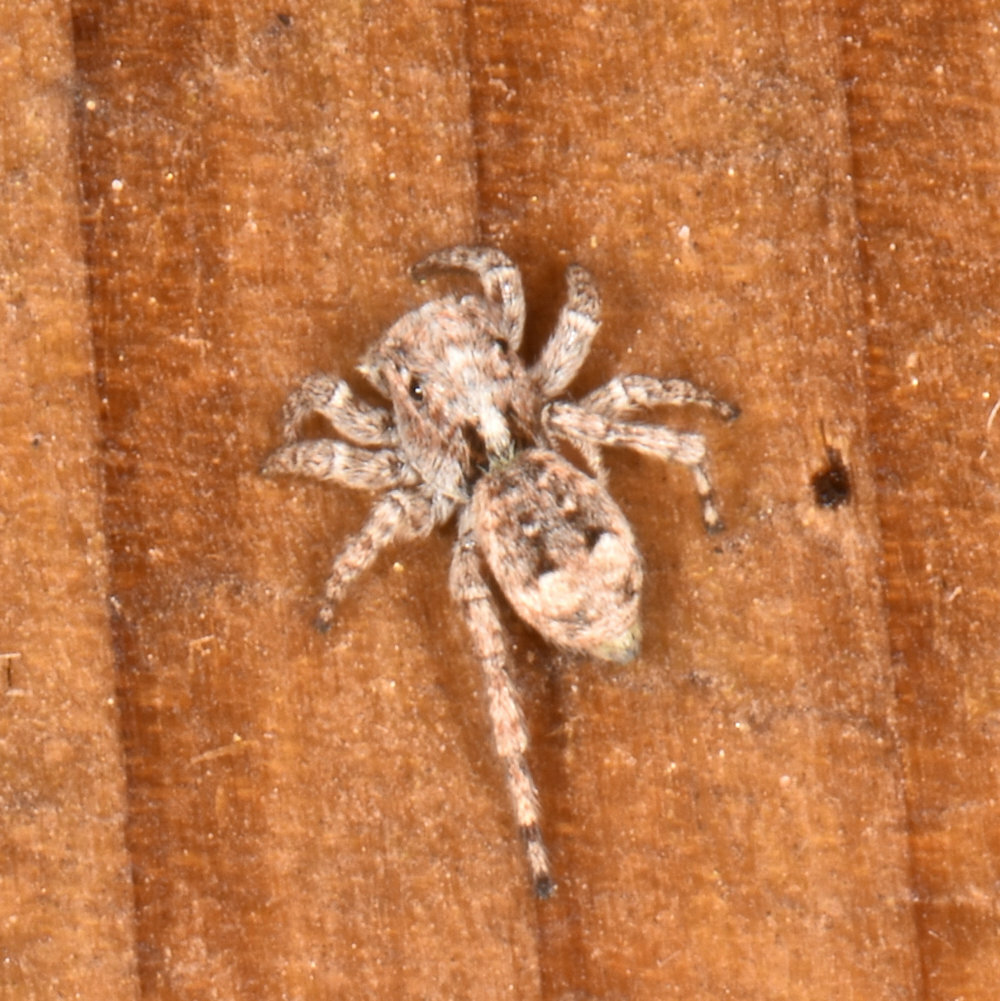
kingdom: Animalia
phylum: Arthropoda
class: Arachnida
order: Araneae
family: Salticidae
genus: Attulus
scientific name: Attulus fasciger
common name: Asiatic wall jumping spider
